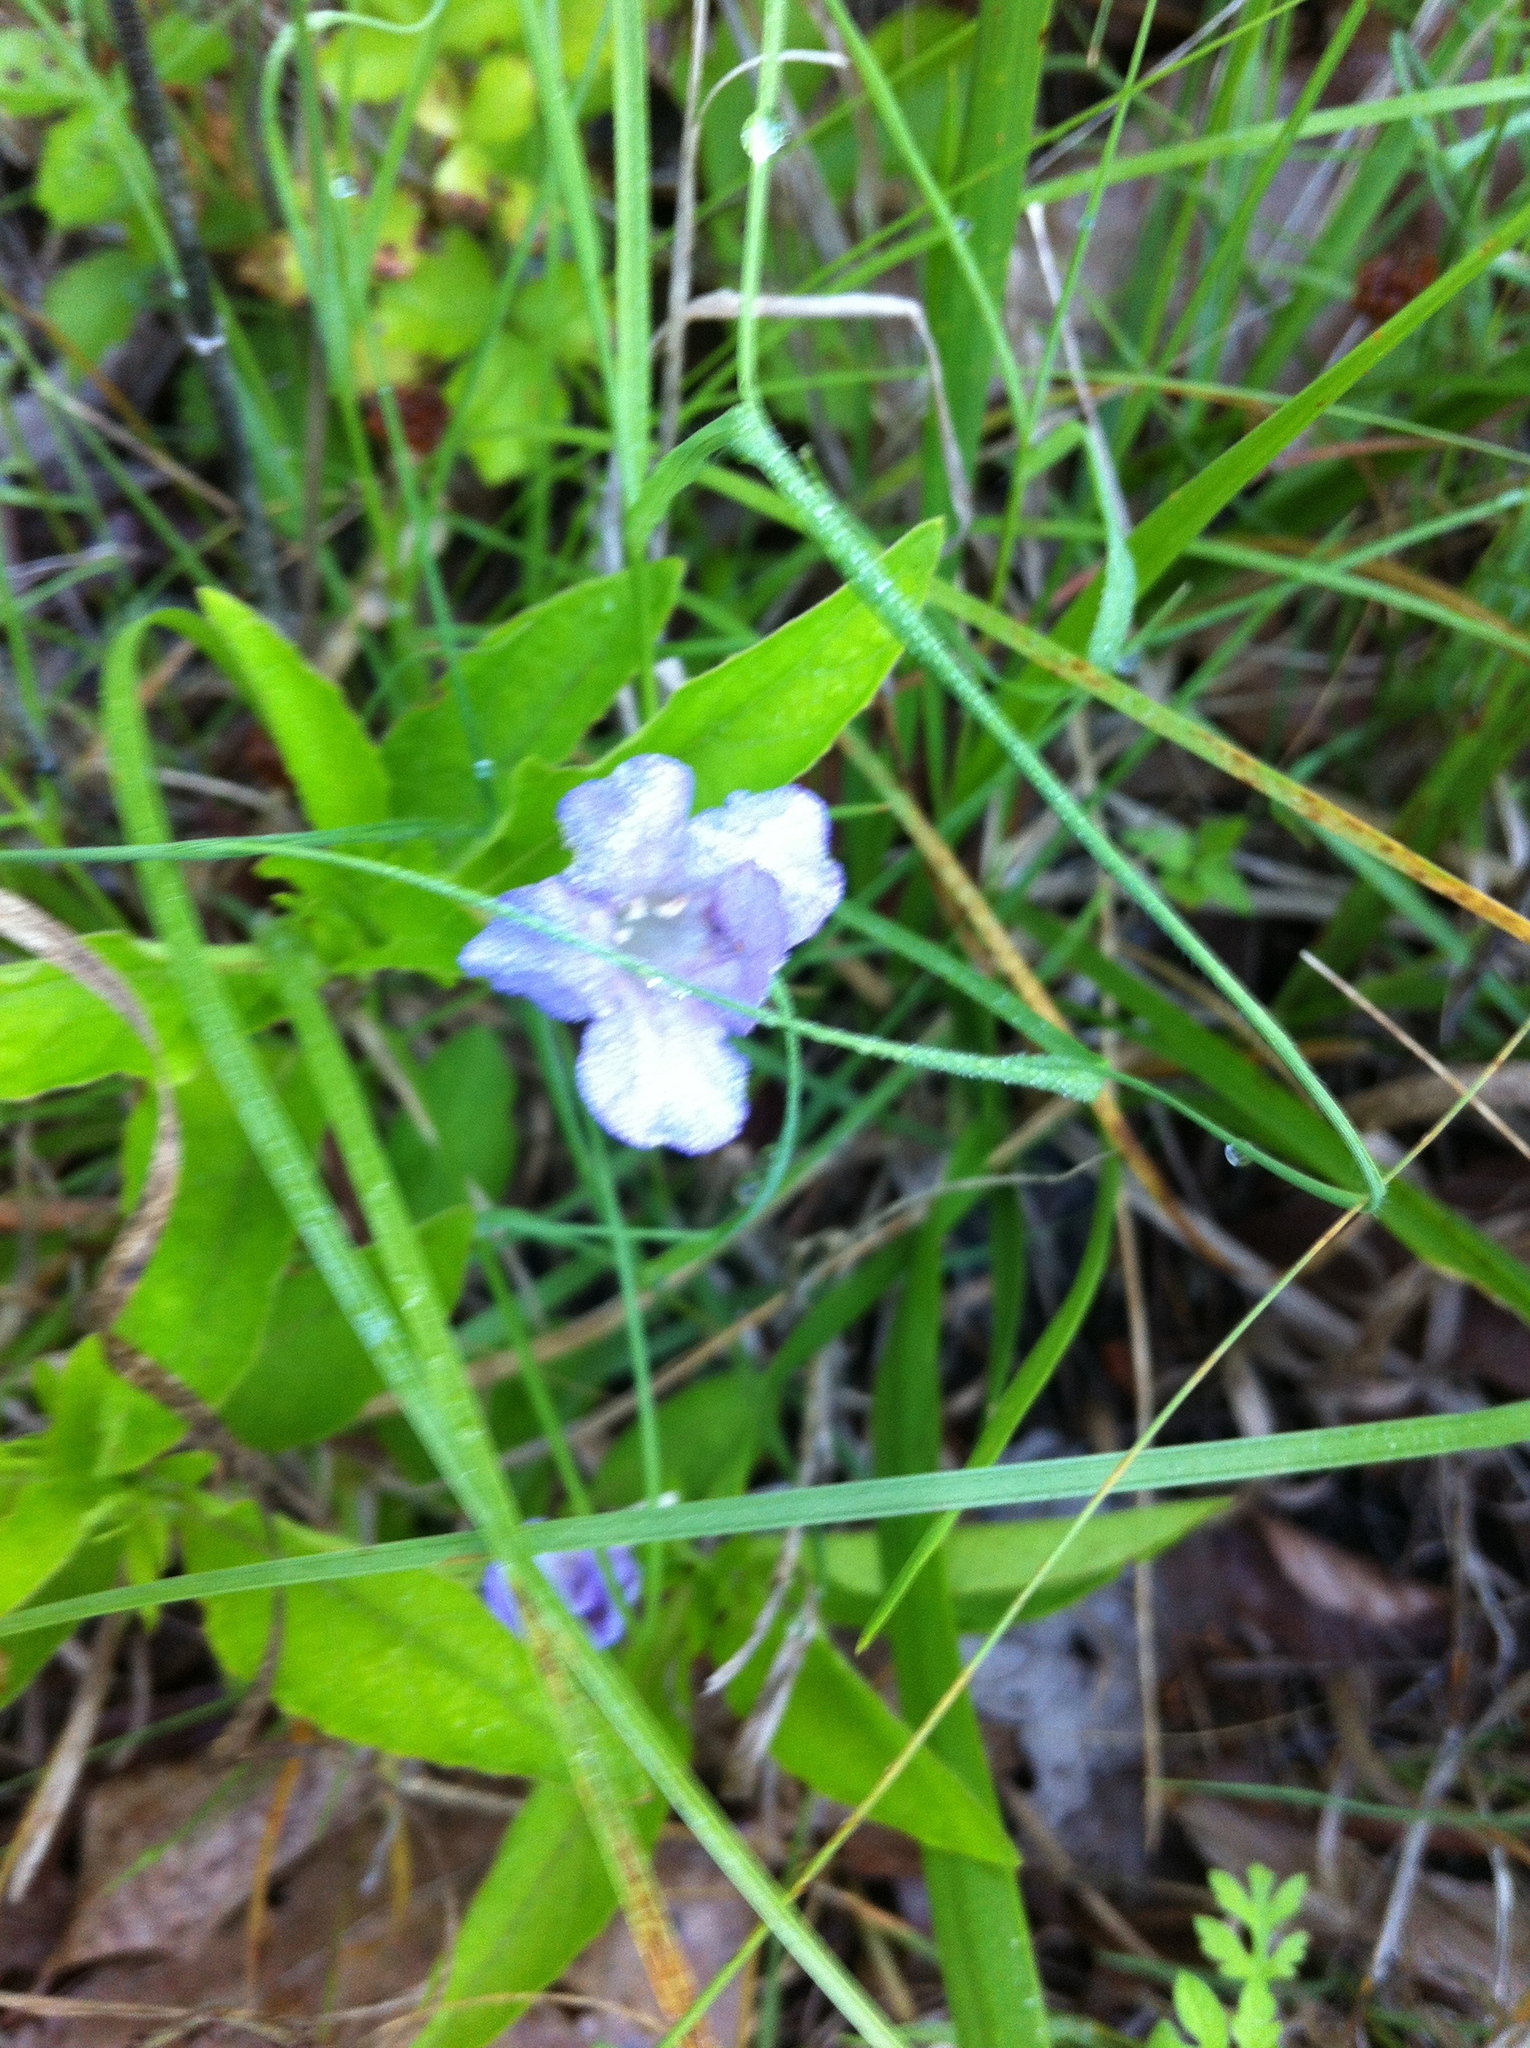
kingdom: Plantae
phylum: Tracheophyta
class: Magnoliopsida
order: Lamiales
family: Acanthaceae
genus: Ruellia
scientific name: Ruellia caroliniensis
